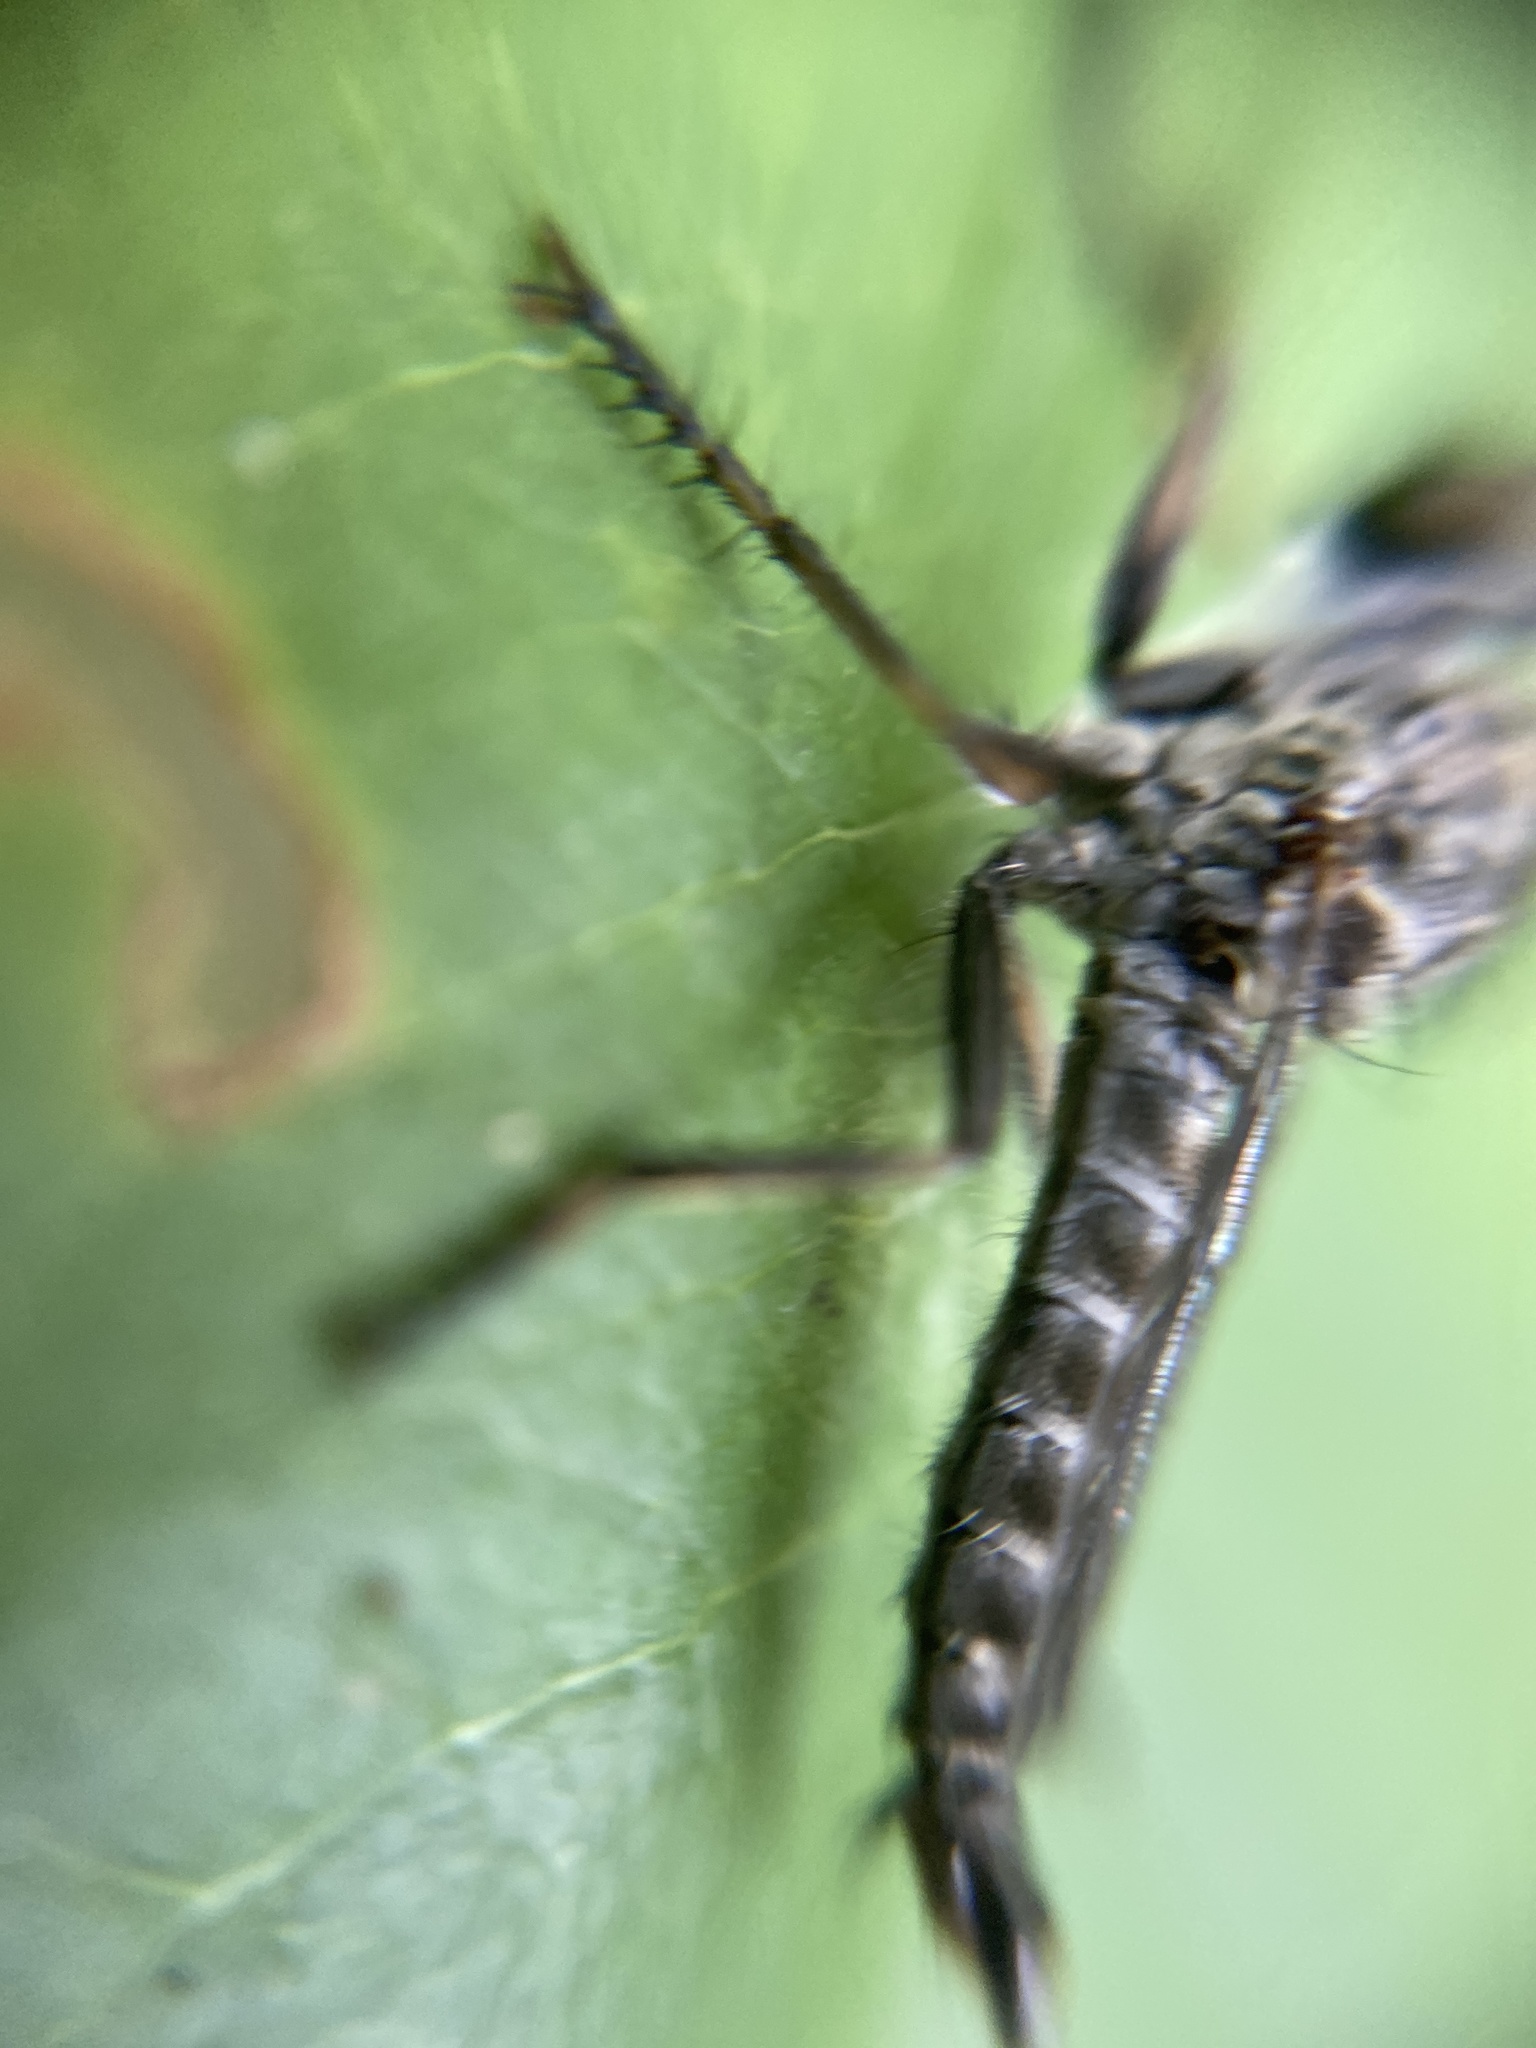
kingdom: Animalia
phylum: Arthropoda
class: Insecta
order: Diptera
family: Asilidae
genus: Machimus
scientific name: Machimus atricapillus
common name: Kite-tailed robberfly
